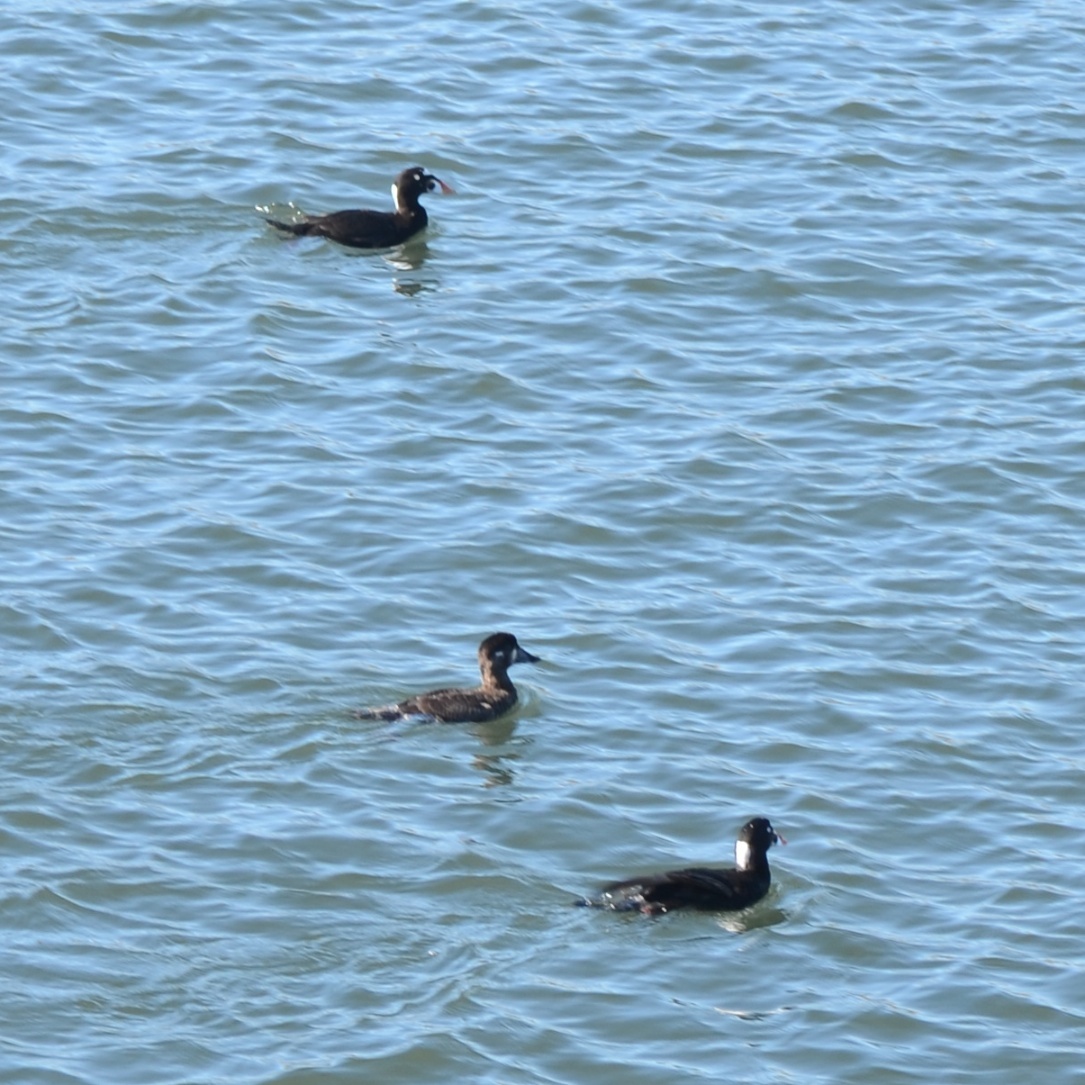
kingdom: Animalia
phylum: Chordata
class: Aves
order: Anseriformes
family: Anatidae
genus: Melanitta
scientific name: Melanitta perspicillata
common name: Surf scoter
